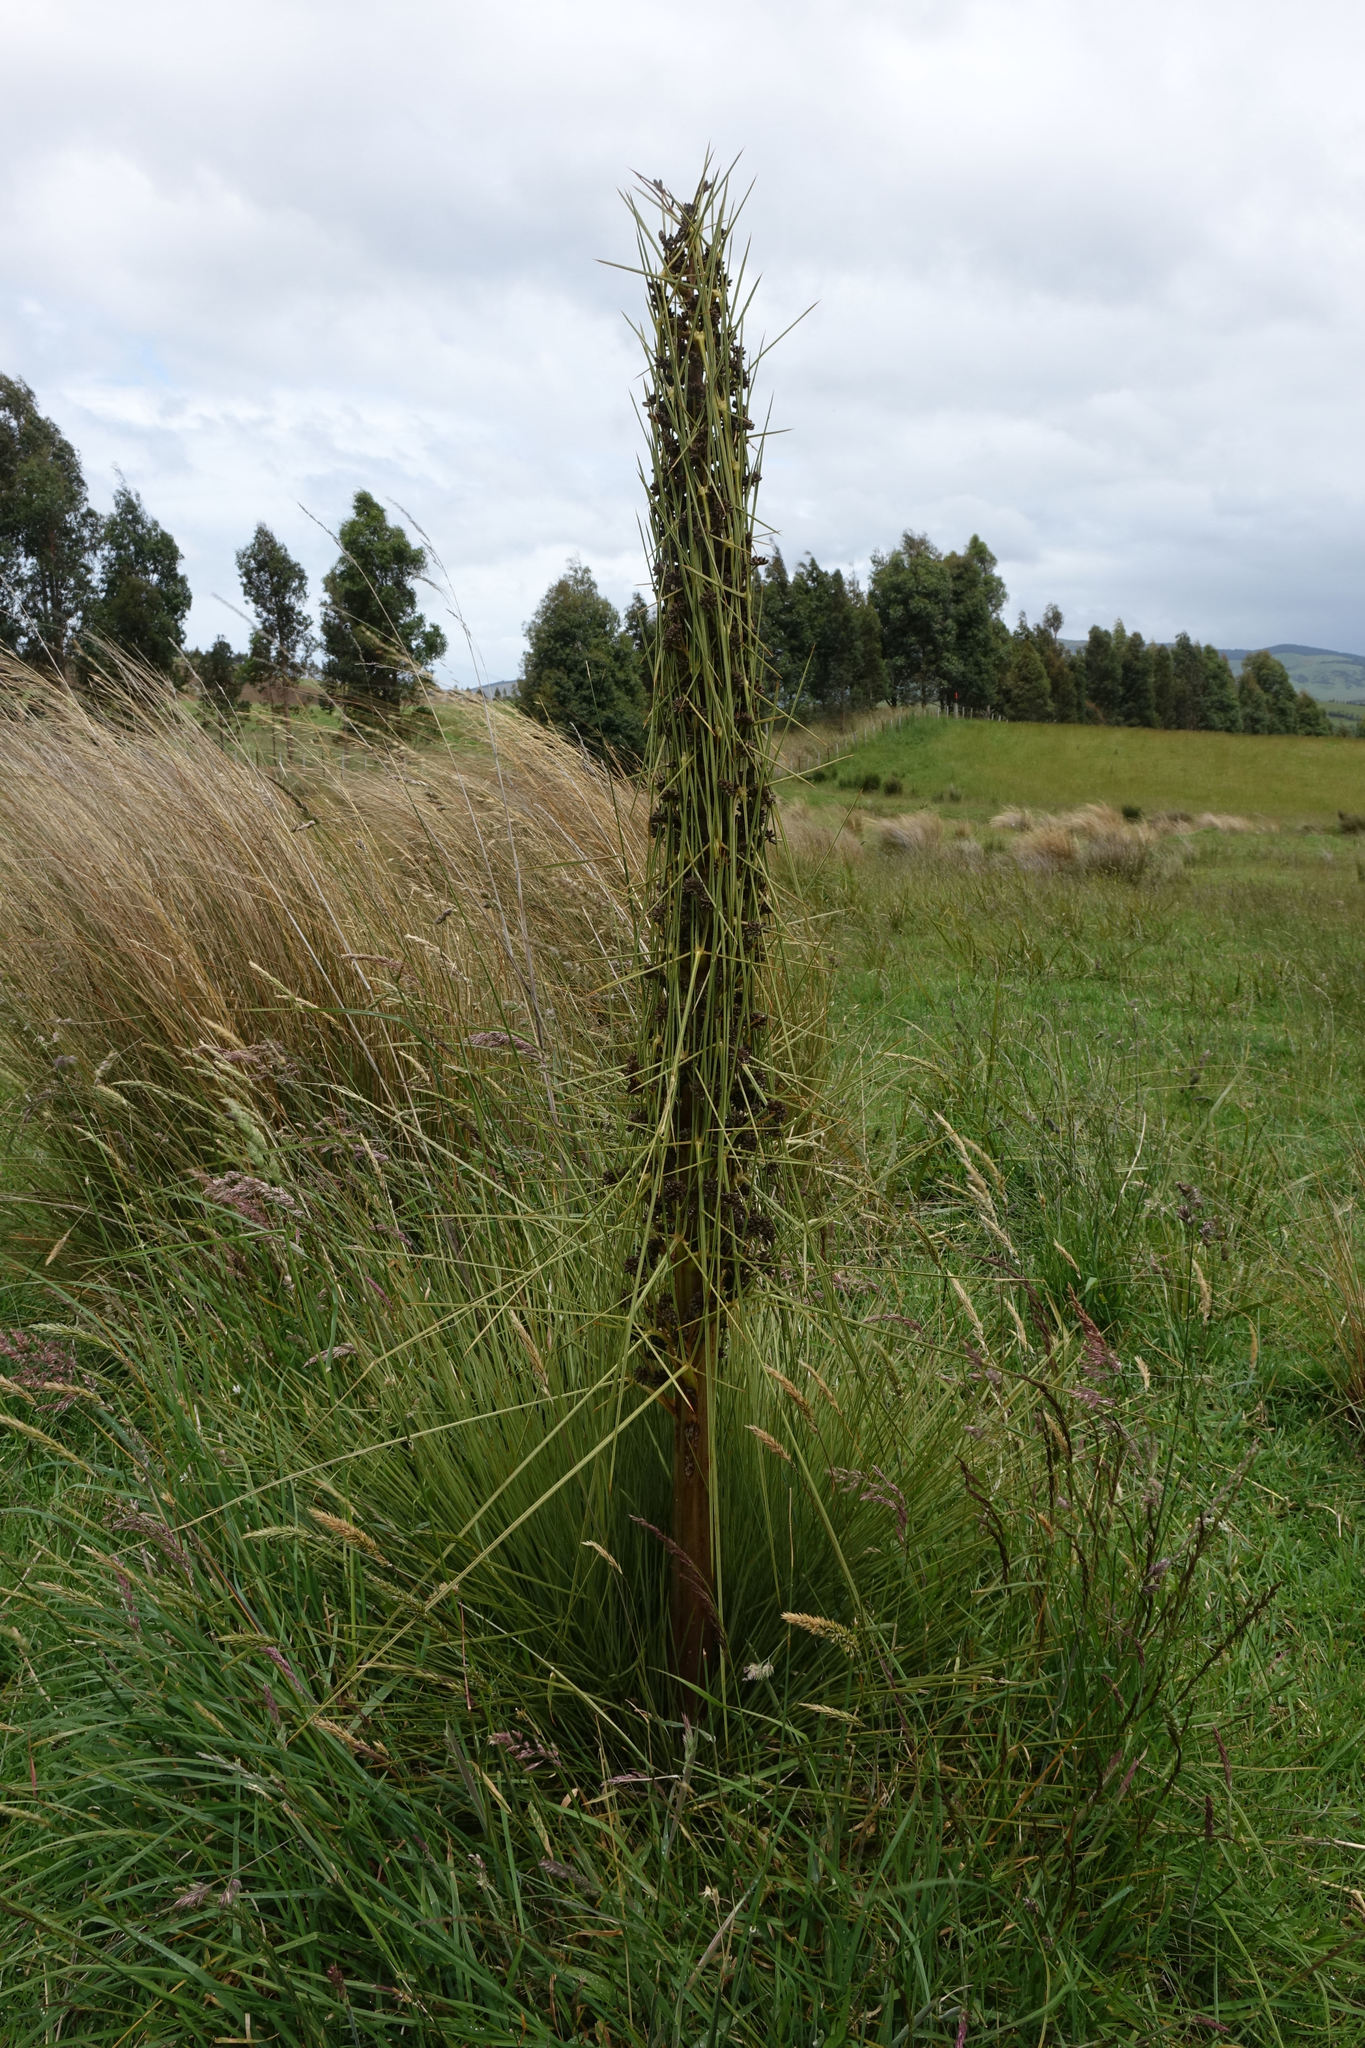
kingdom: Plantae
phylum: Tracheophyta
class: Magnoliopsida
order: Apiales
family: Apiaceae
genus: Aciphylla
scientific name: Aciphylla subflabellata
